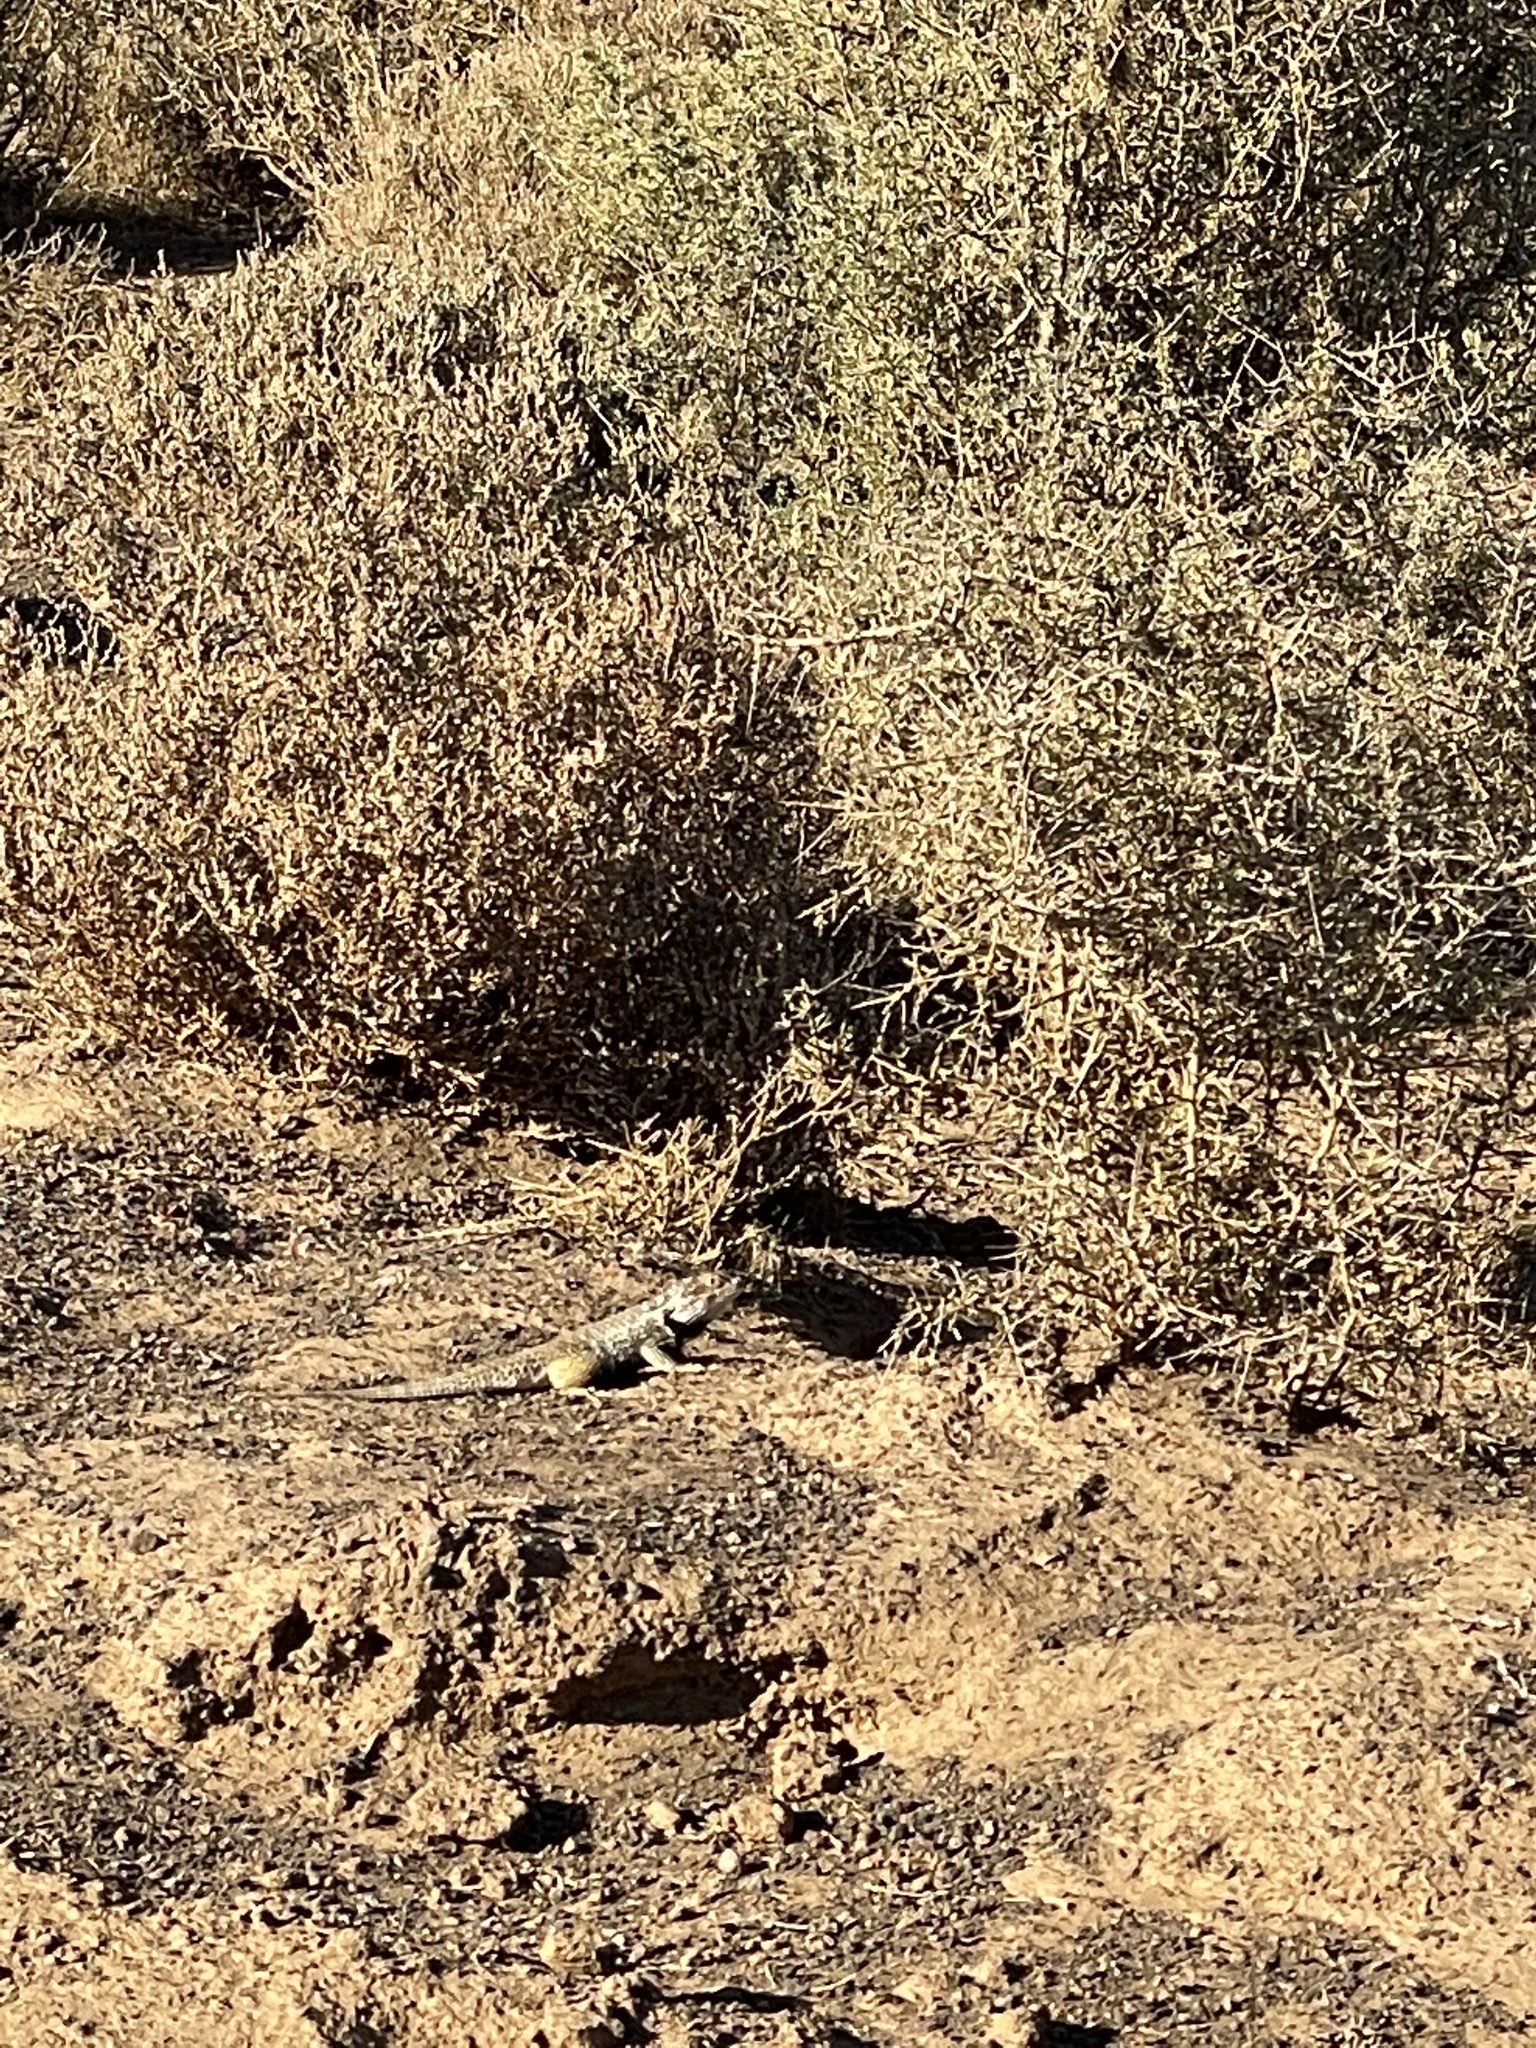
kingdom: Animalia
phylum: Chordata
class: Squamata
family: Phrynosomatidae
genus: Sceloporus
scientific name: Sceloporus zosteromus
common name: Baja spiny lizard
